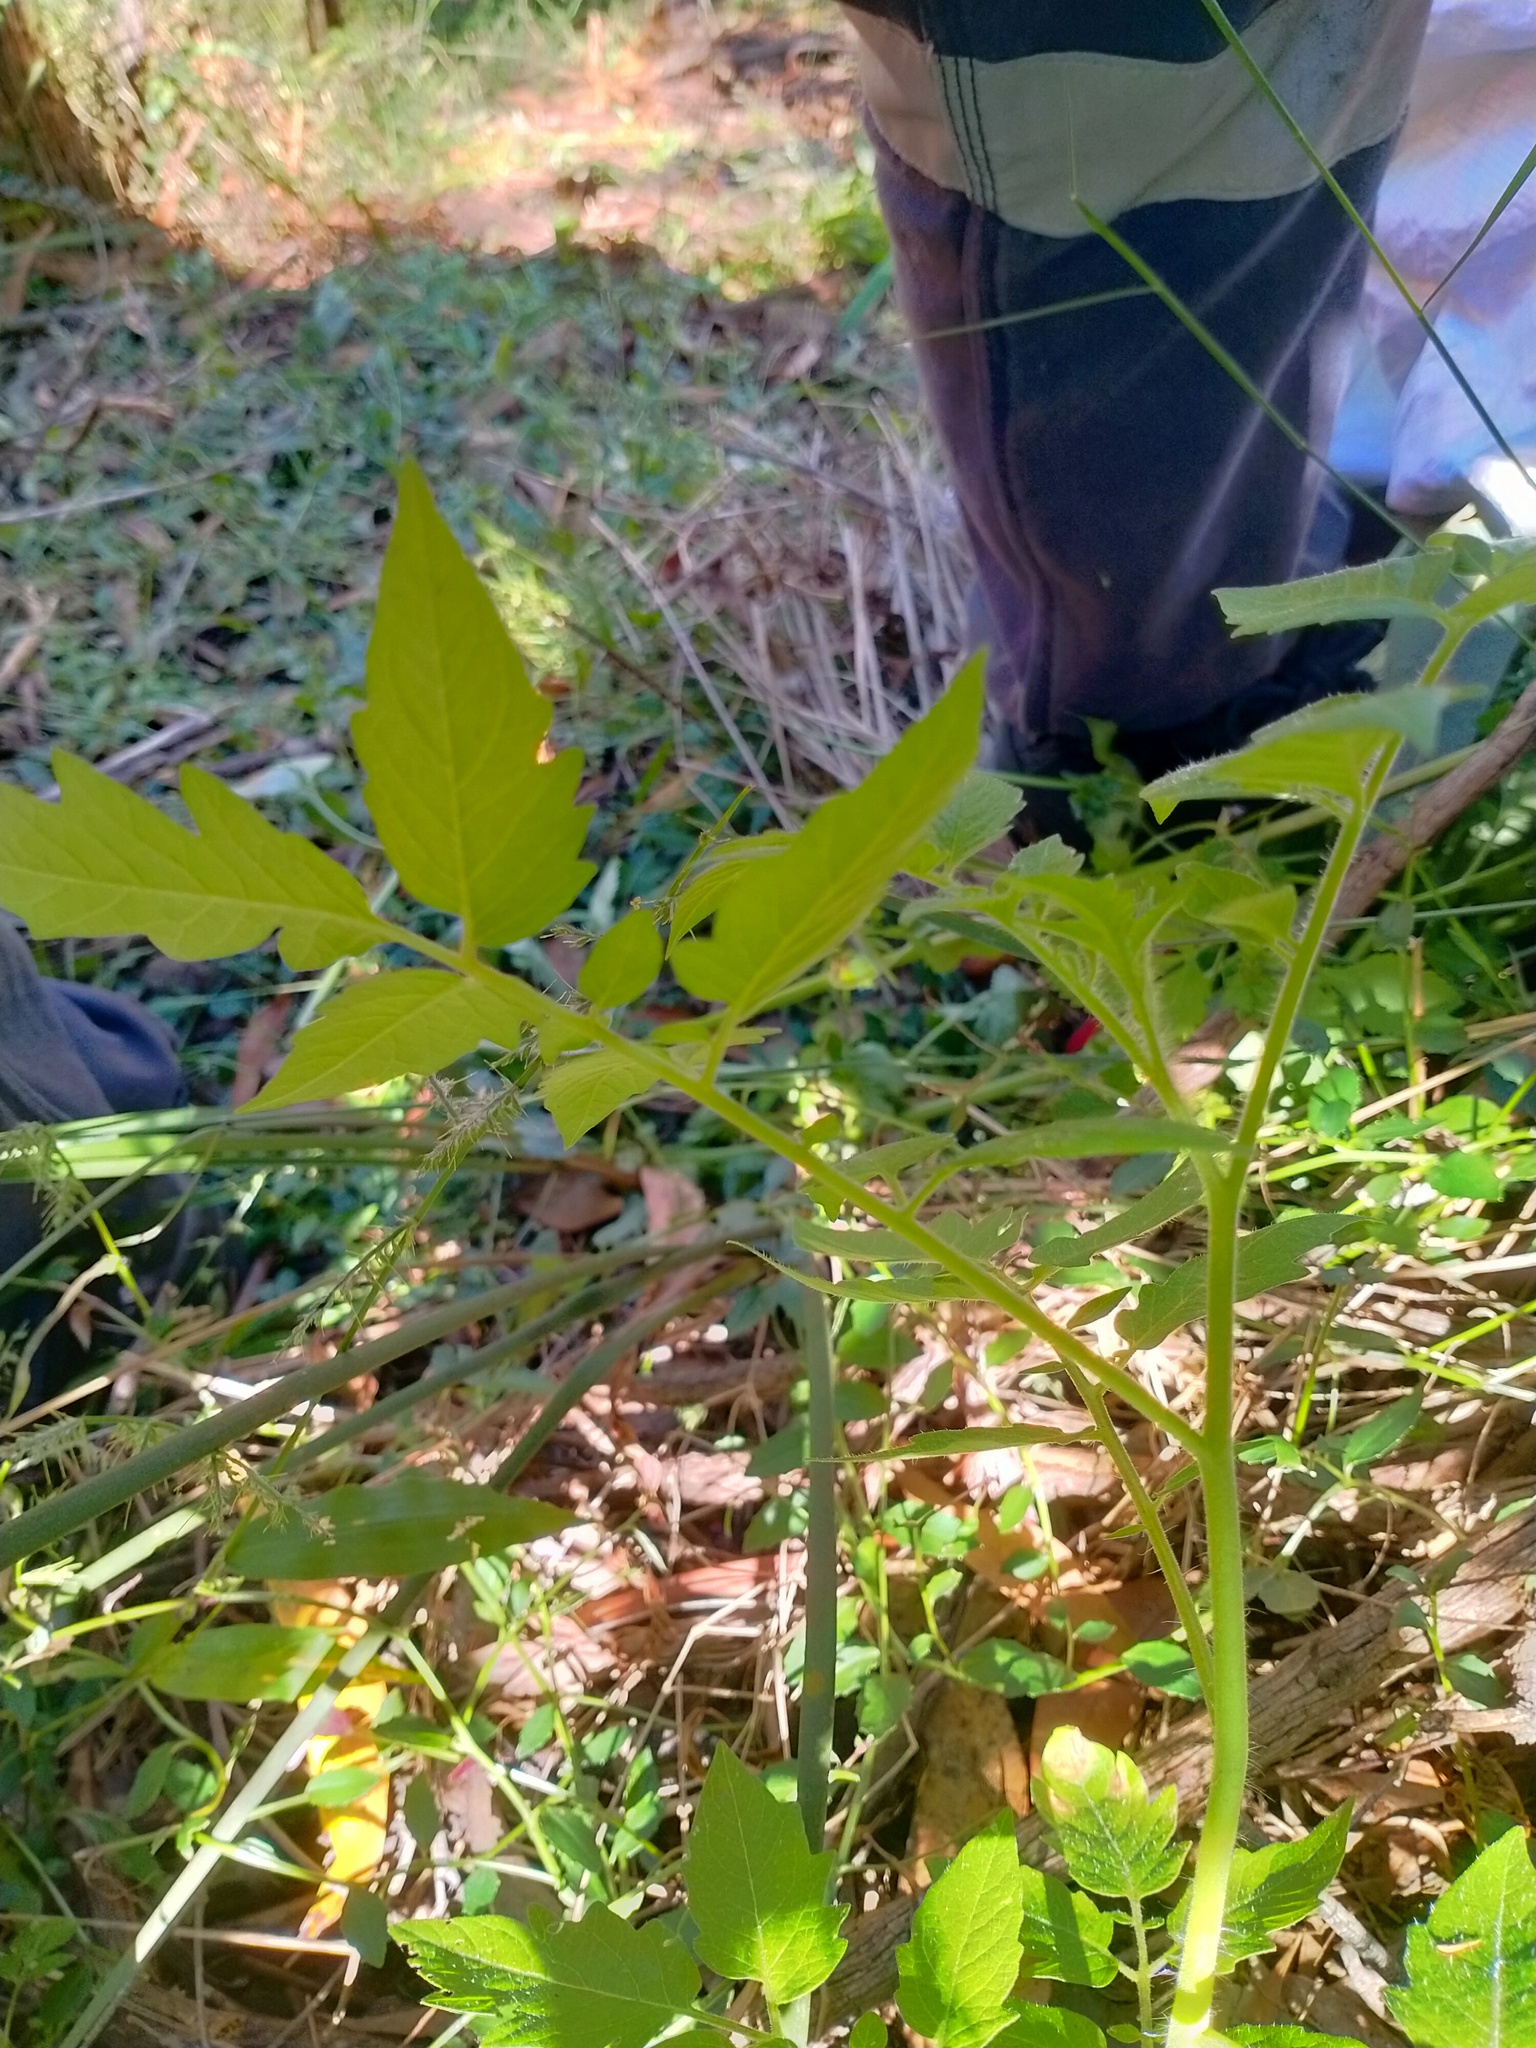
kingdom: Plantae
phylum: Tracheophyta
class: Magnoliopsida
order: Solanales
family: Solanaceae
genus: Solanum
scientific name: Solanum lycopersicum
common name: Garden tomato
